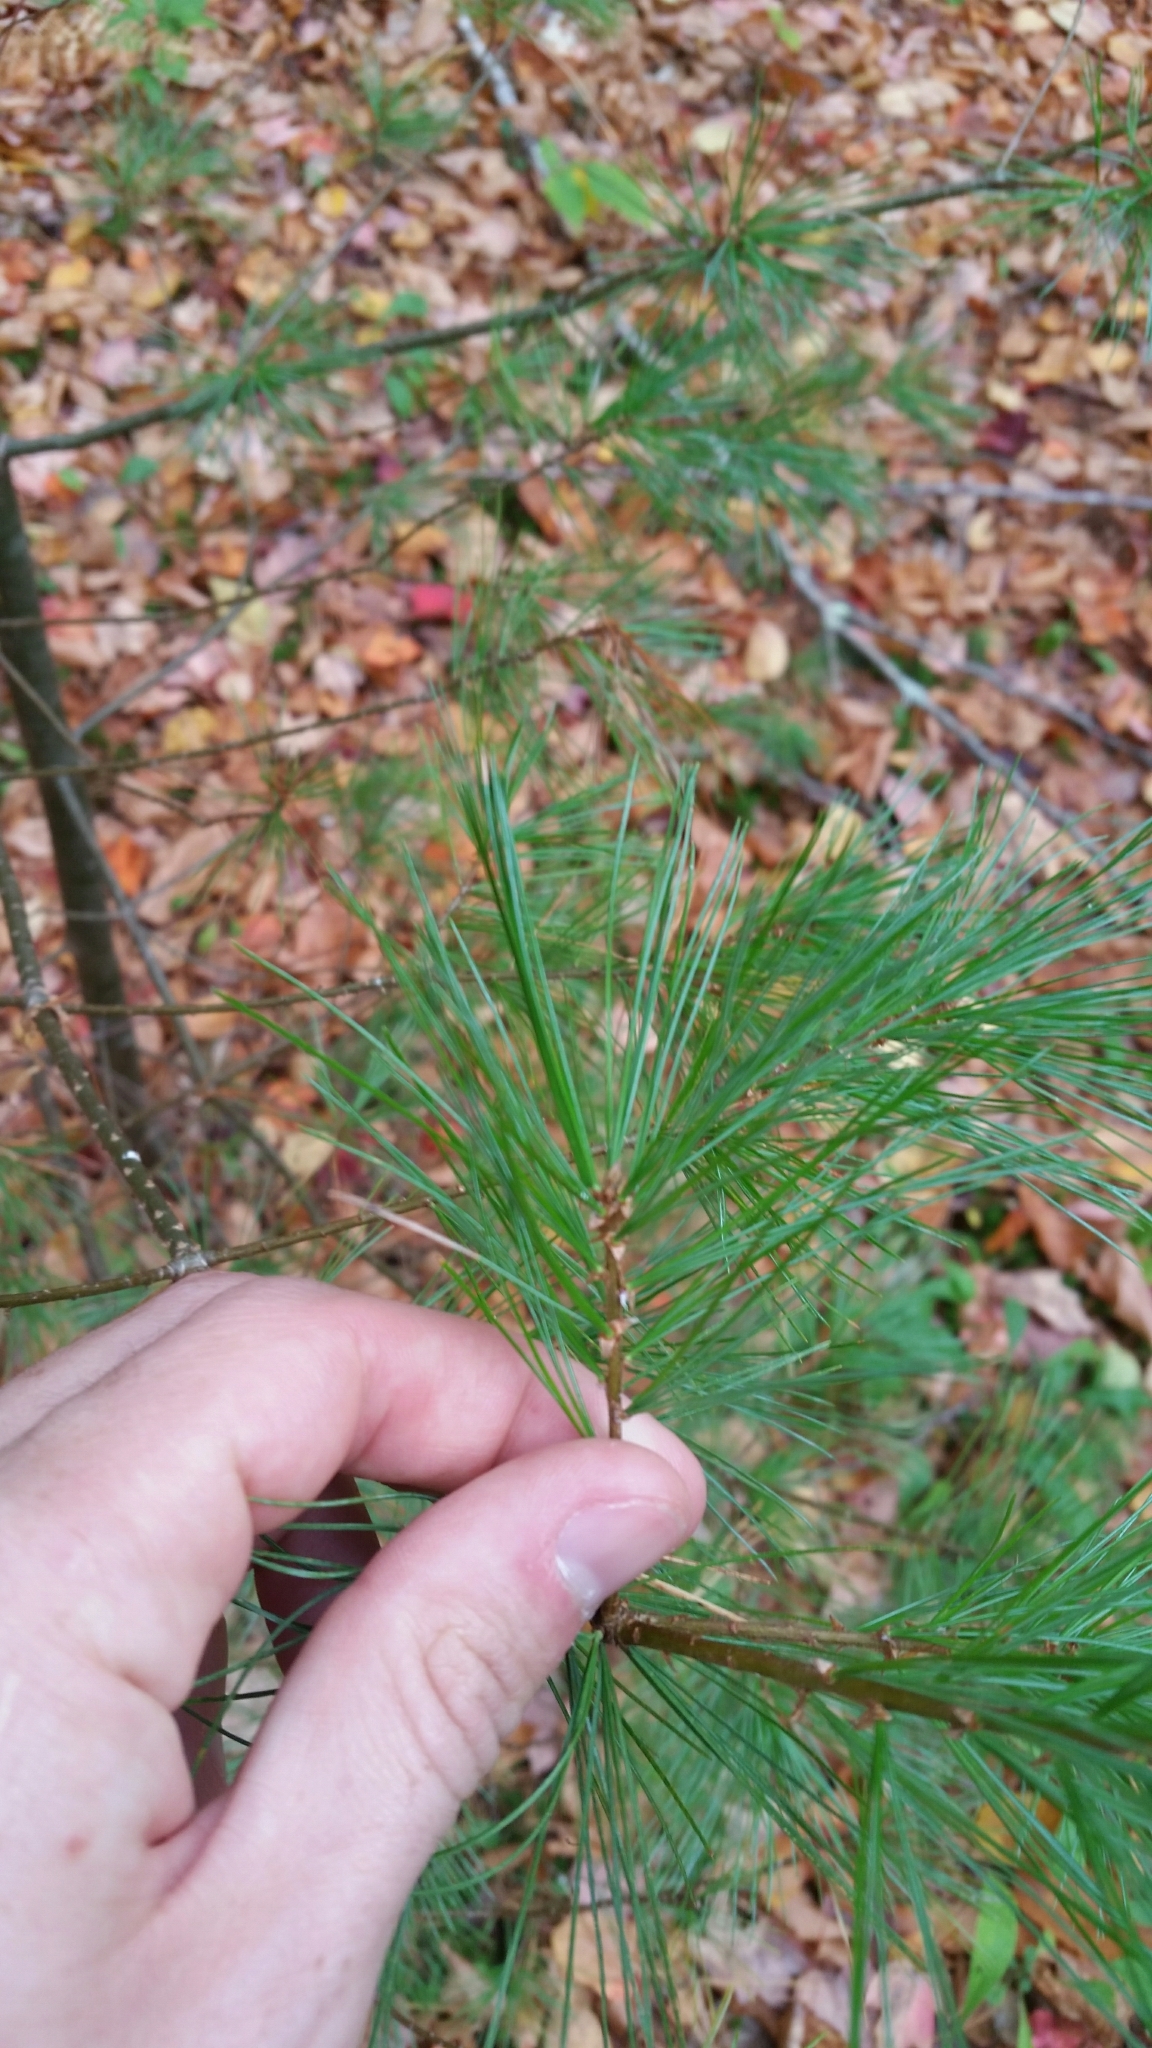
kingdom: Plantae
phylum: Tracheophyta
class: Pinopsida
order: Pinales
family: Pinaceae
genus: Pinus
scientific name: Pinus strobus
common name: Weymouth pine
